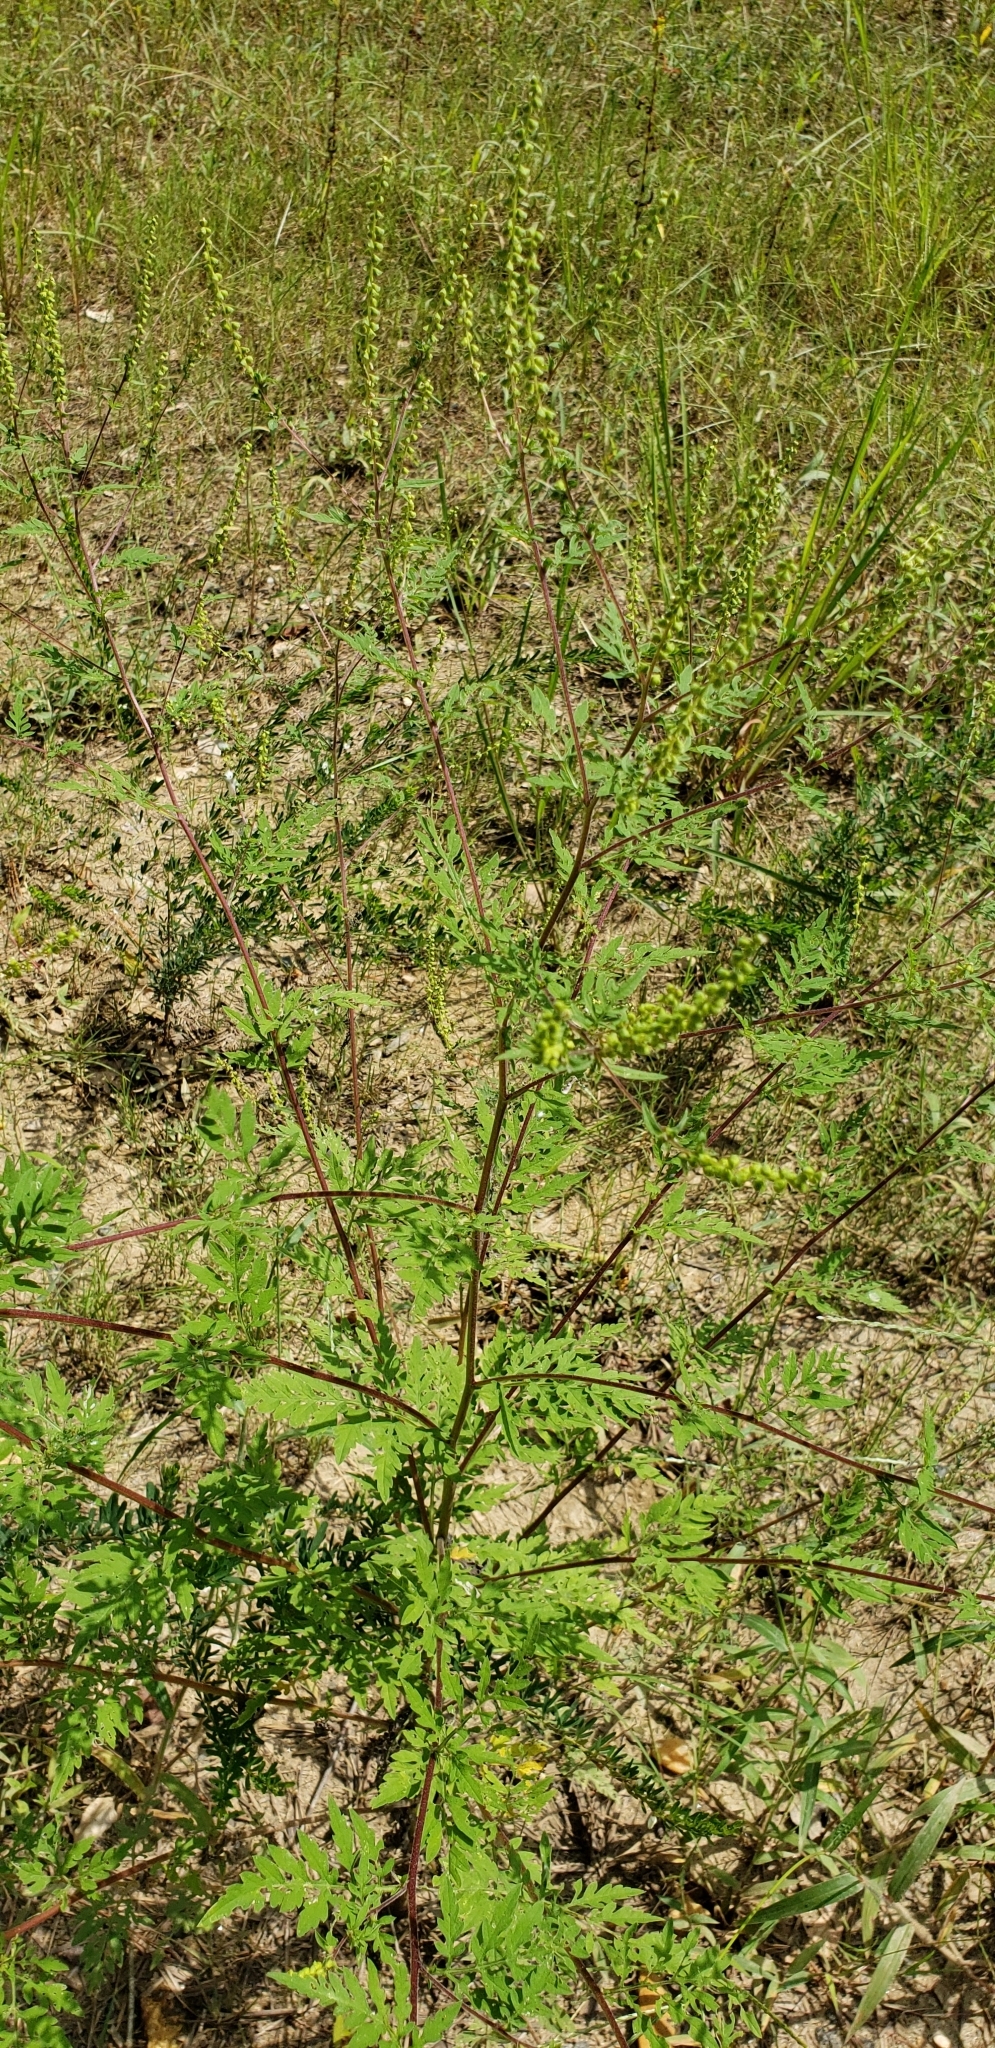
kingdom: Plantae
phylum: Tracheophyta
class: Magnoliopsida
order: Asterales
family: Asteraceae
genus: Ambrosia
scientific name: Ambrosia artemisiifolia
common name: Annual ragweed
